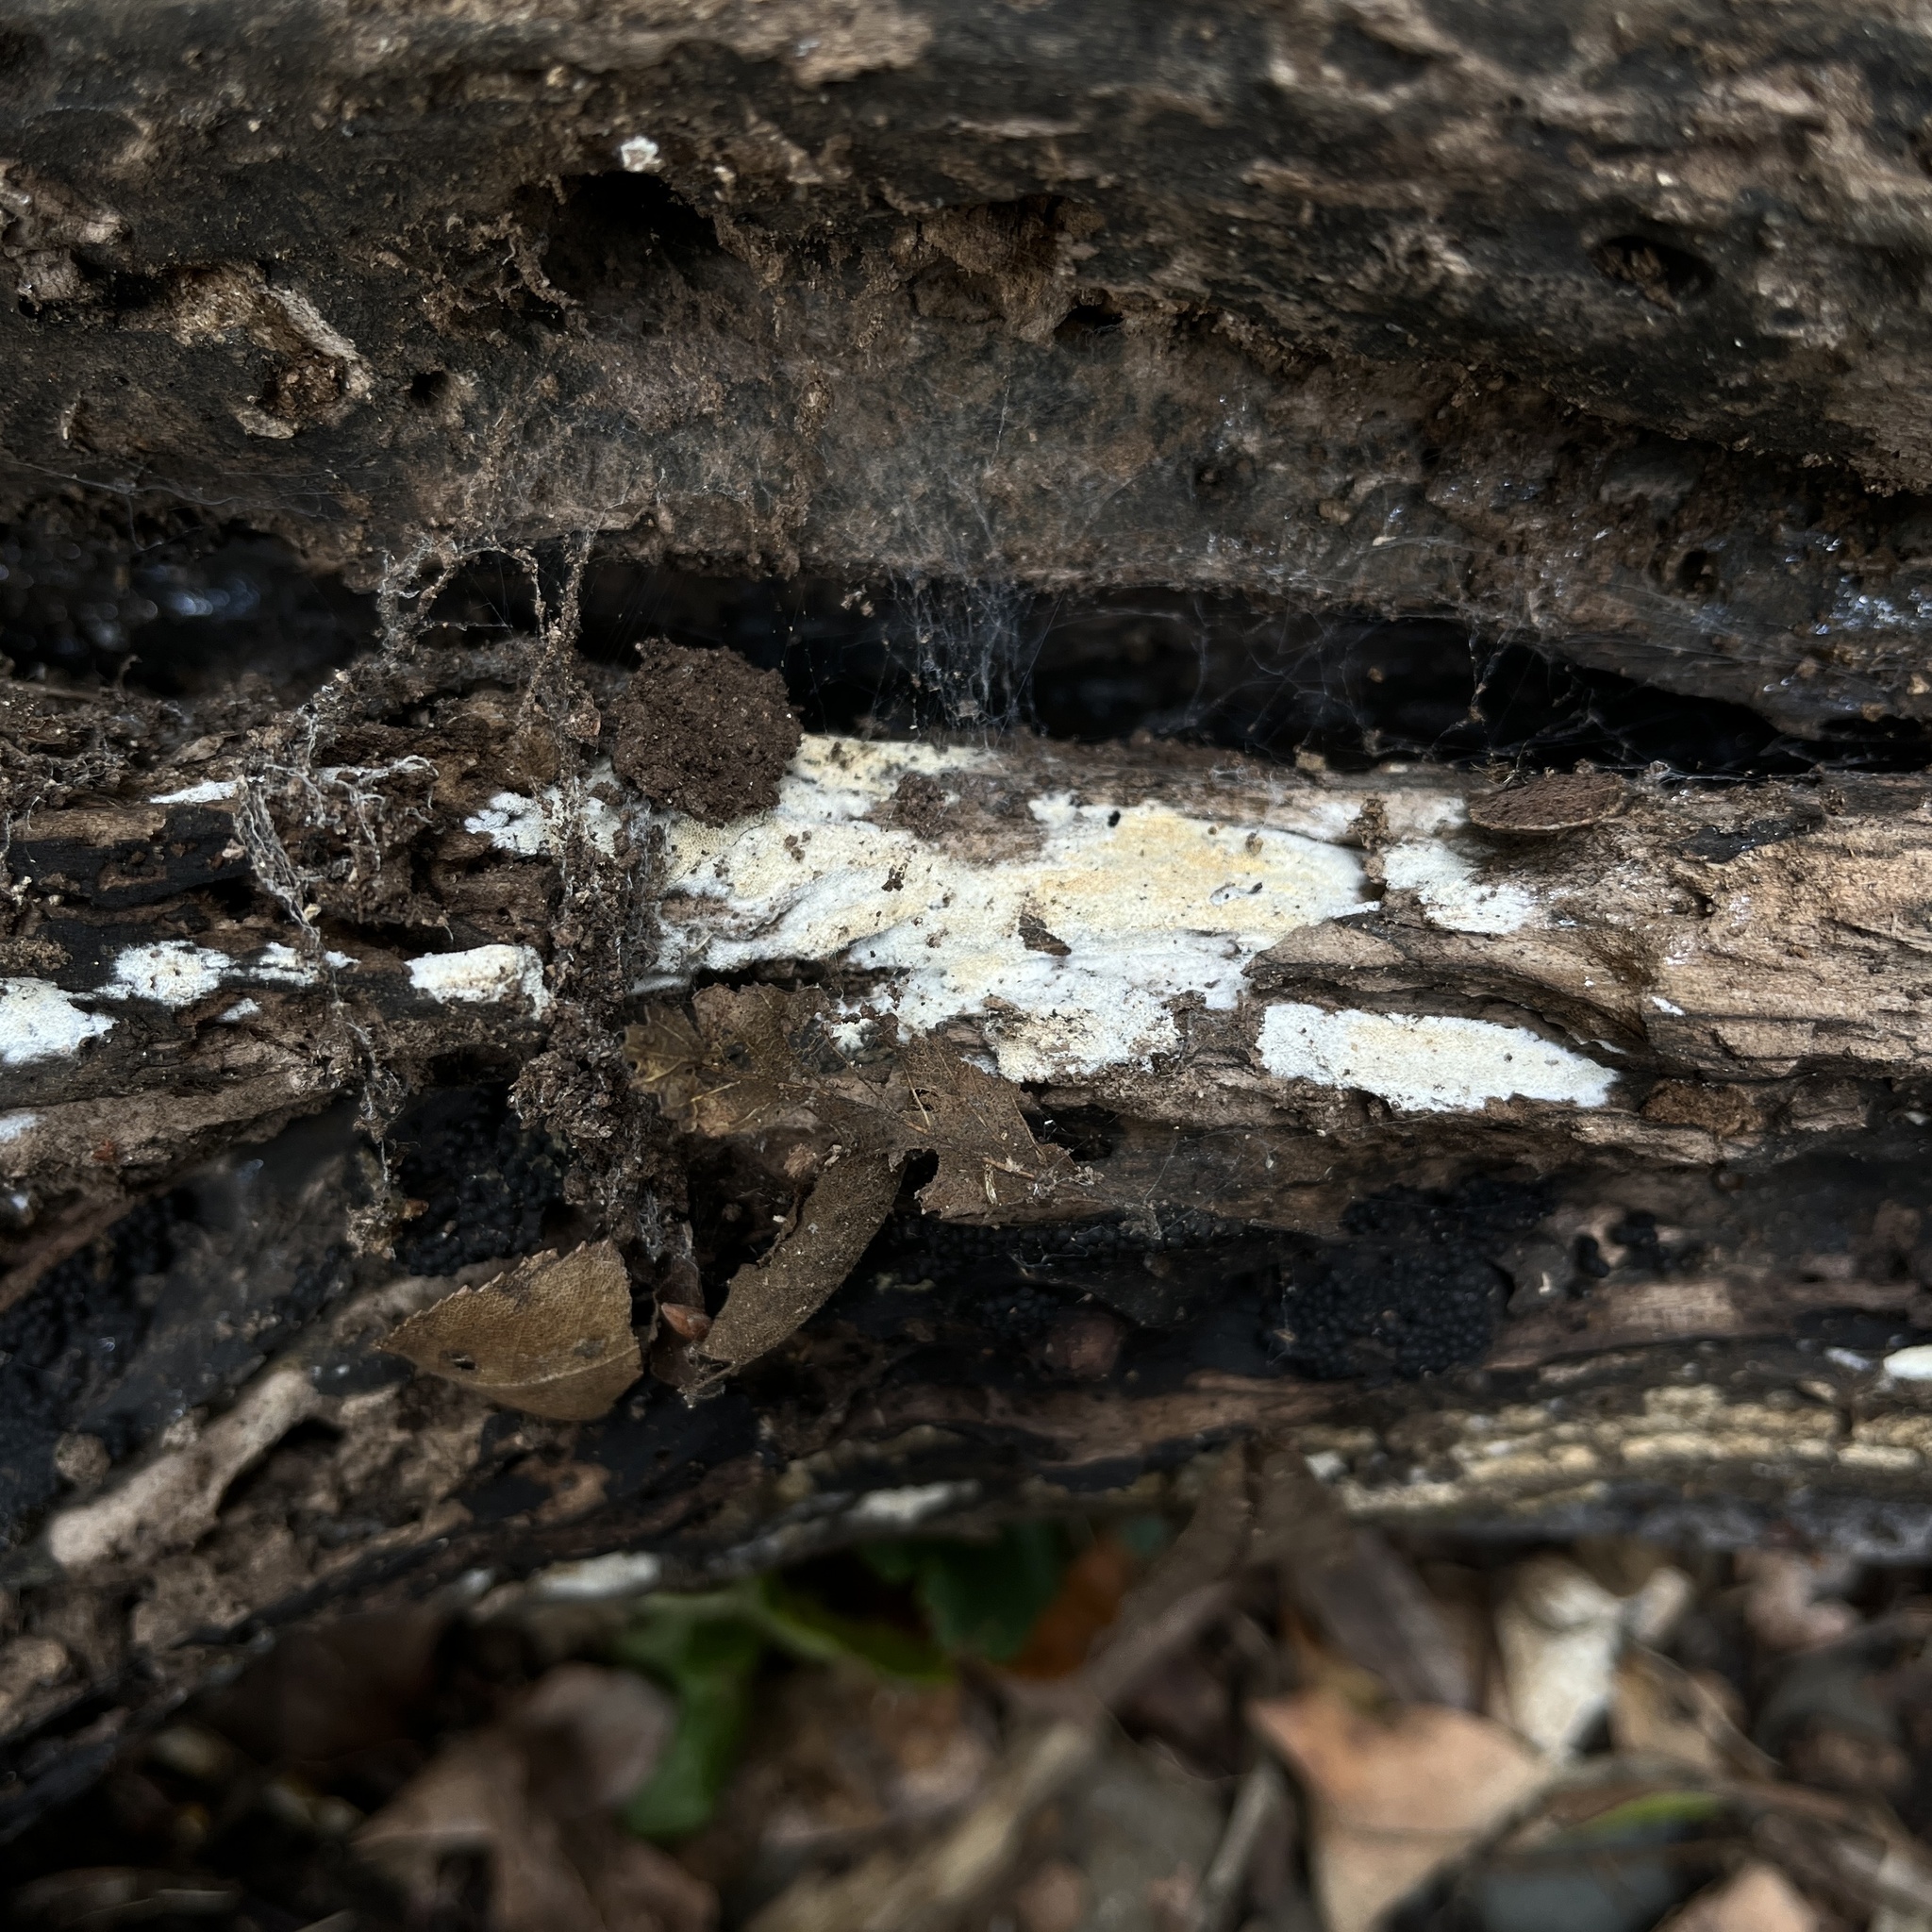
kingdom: Fungi
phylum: Basidiomycota
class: Agaricomycetes
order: Hymenochaetales
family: Schizoporaceae
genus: Schizopora
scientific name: Schizopora paradoxa
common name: Split porecrust
